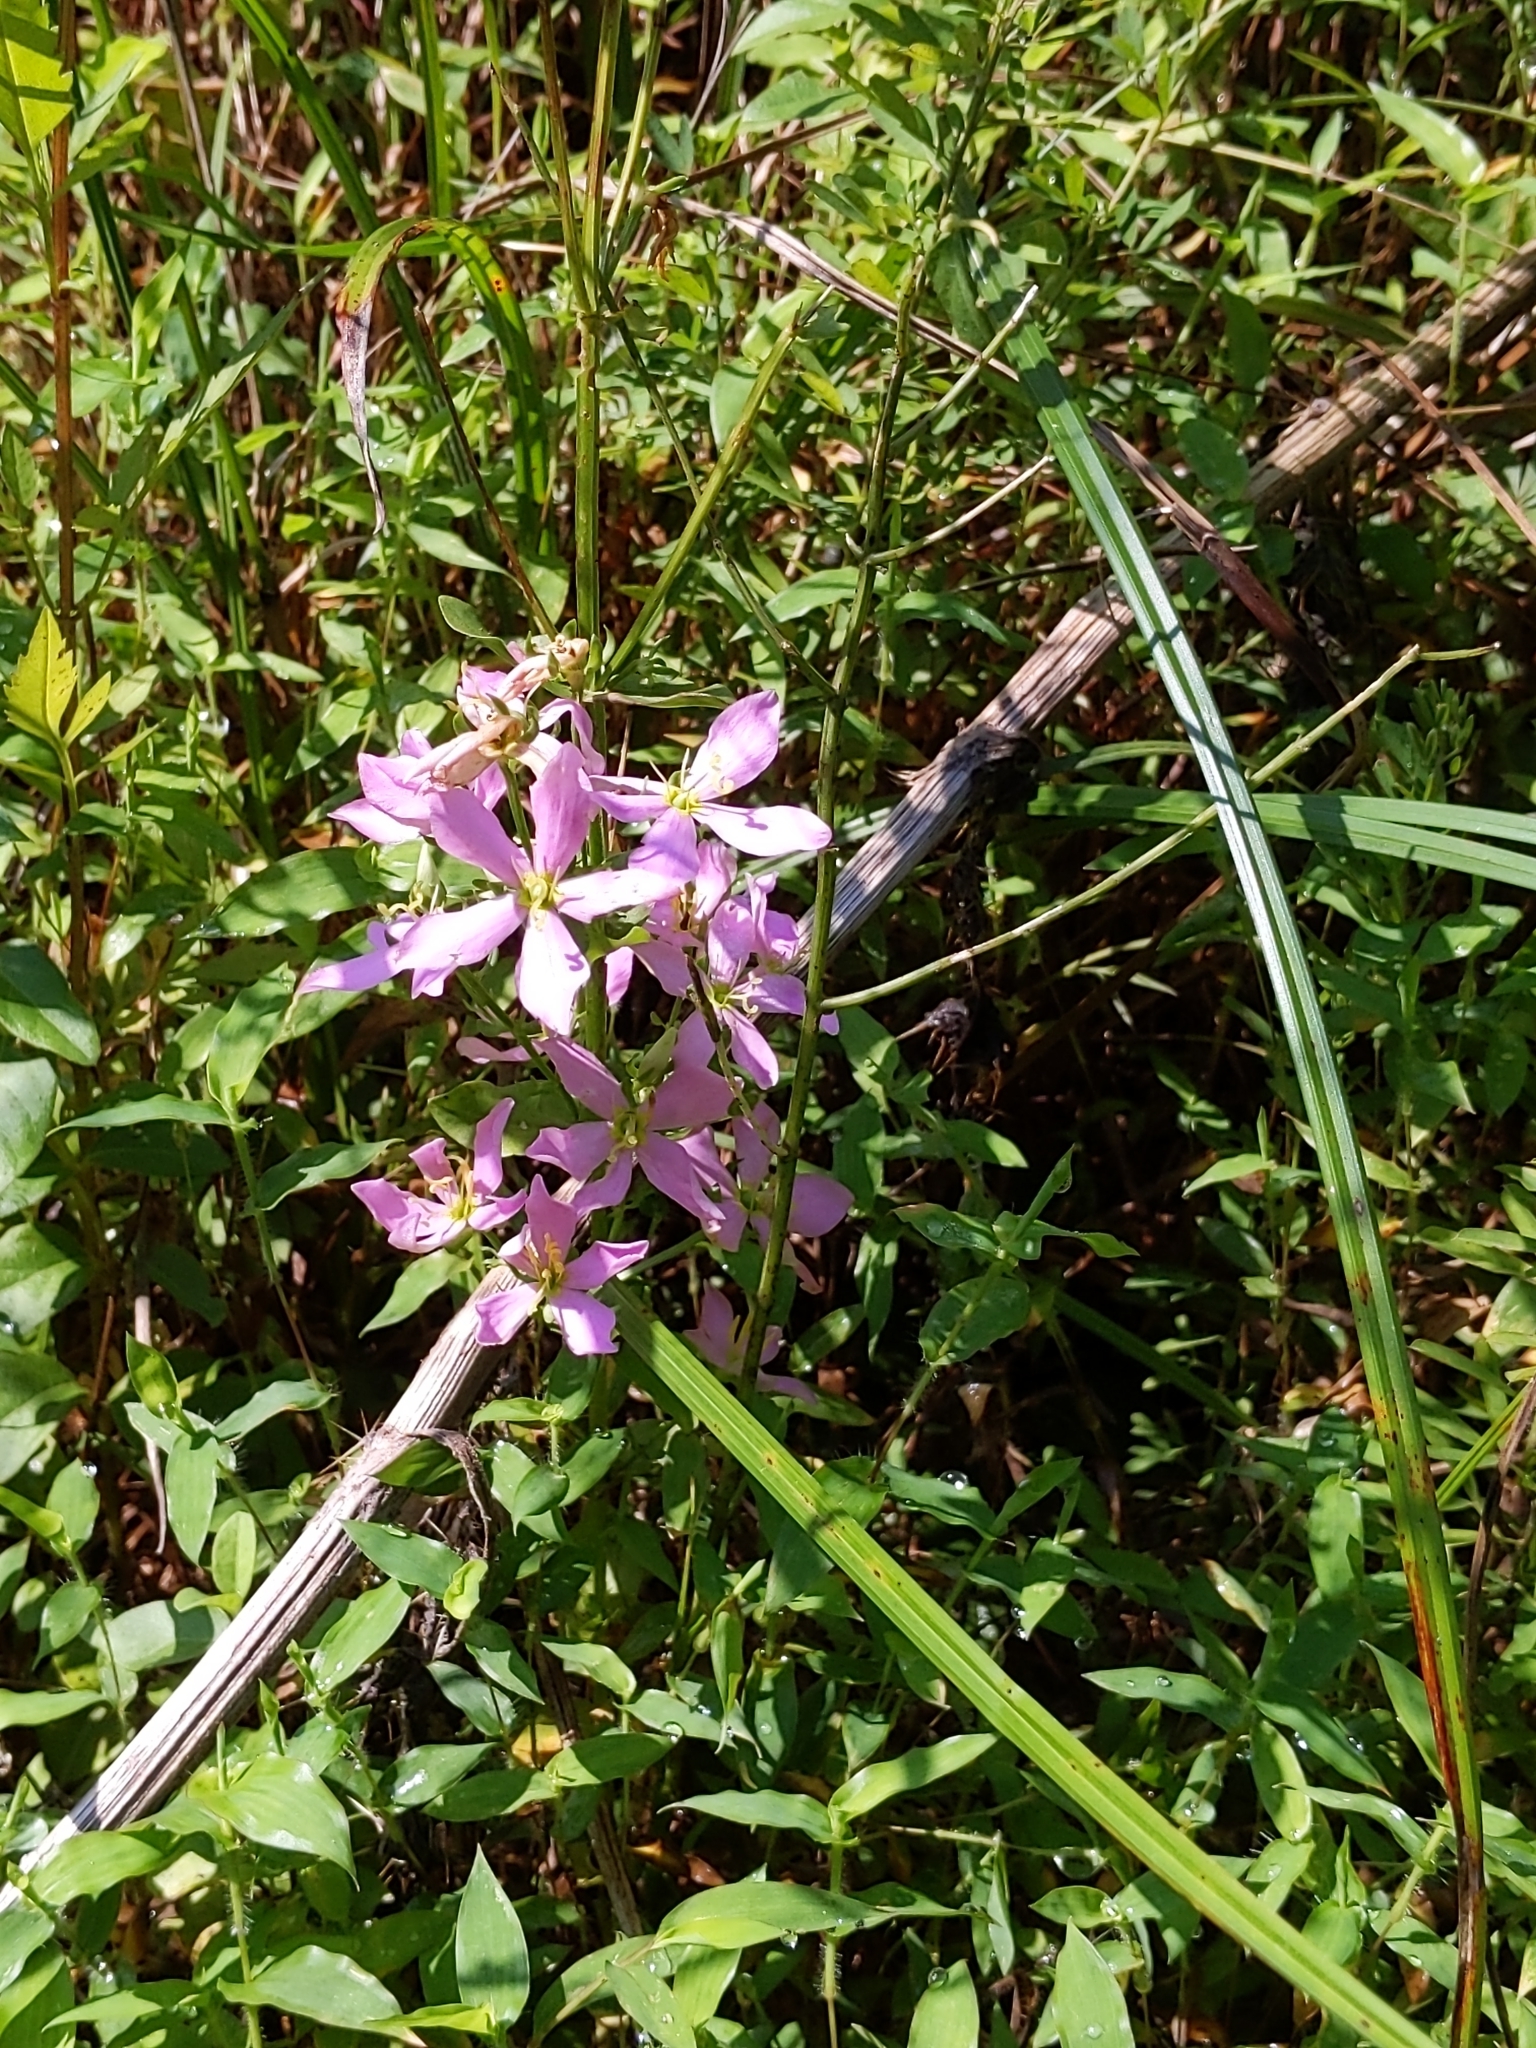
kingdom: Plantae
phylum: Tracheophyta
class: Magnoliopsida
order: Gentianales
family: Gentianaceae
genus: Sabatia
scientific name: Sabatia angularis
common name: Rose-pink
